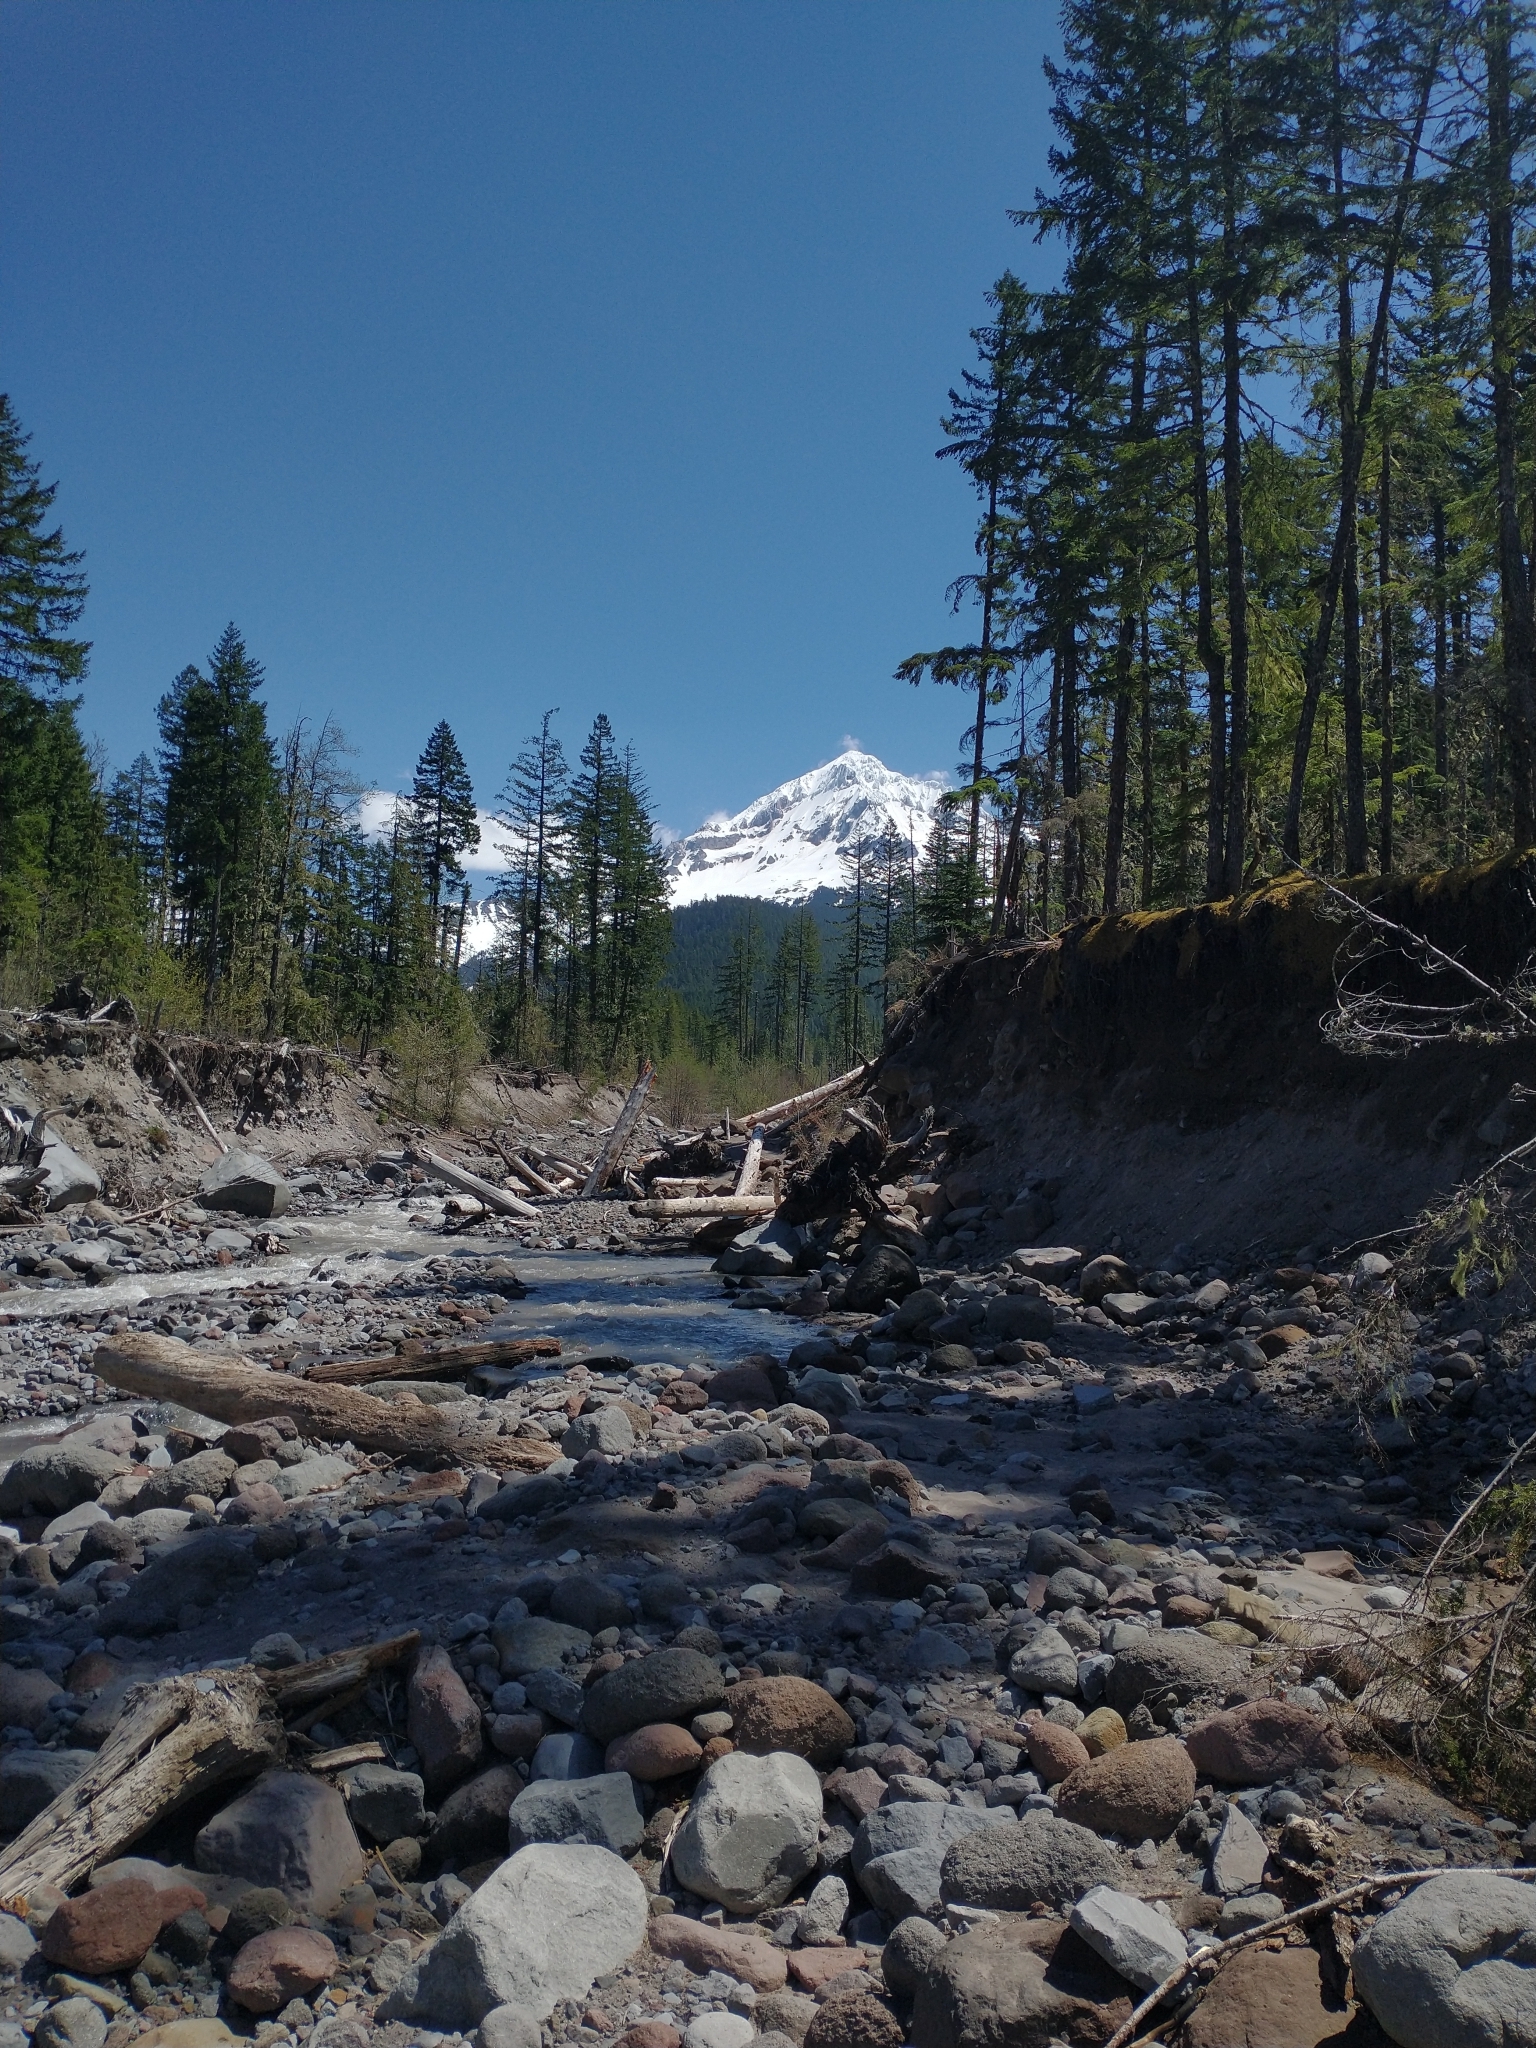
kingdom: Plantae
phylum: Tracheophyta
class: Pinopsida
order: Pinales
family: Pinaceae
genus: Pseudotsuga
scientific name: Pseudotsuga menziesii
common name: Douglas fir
